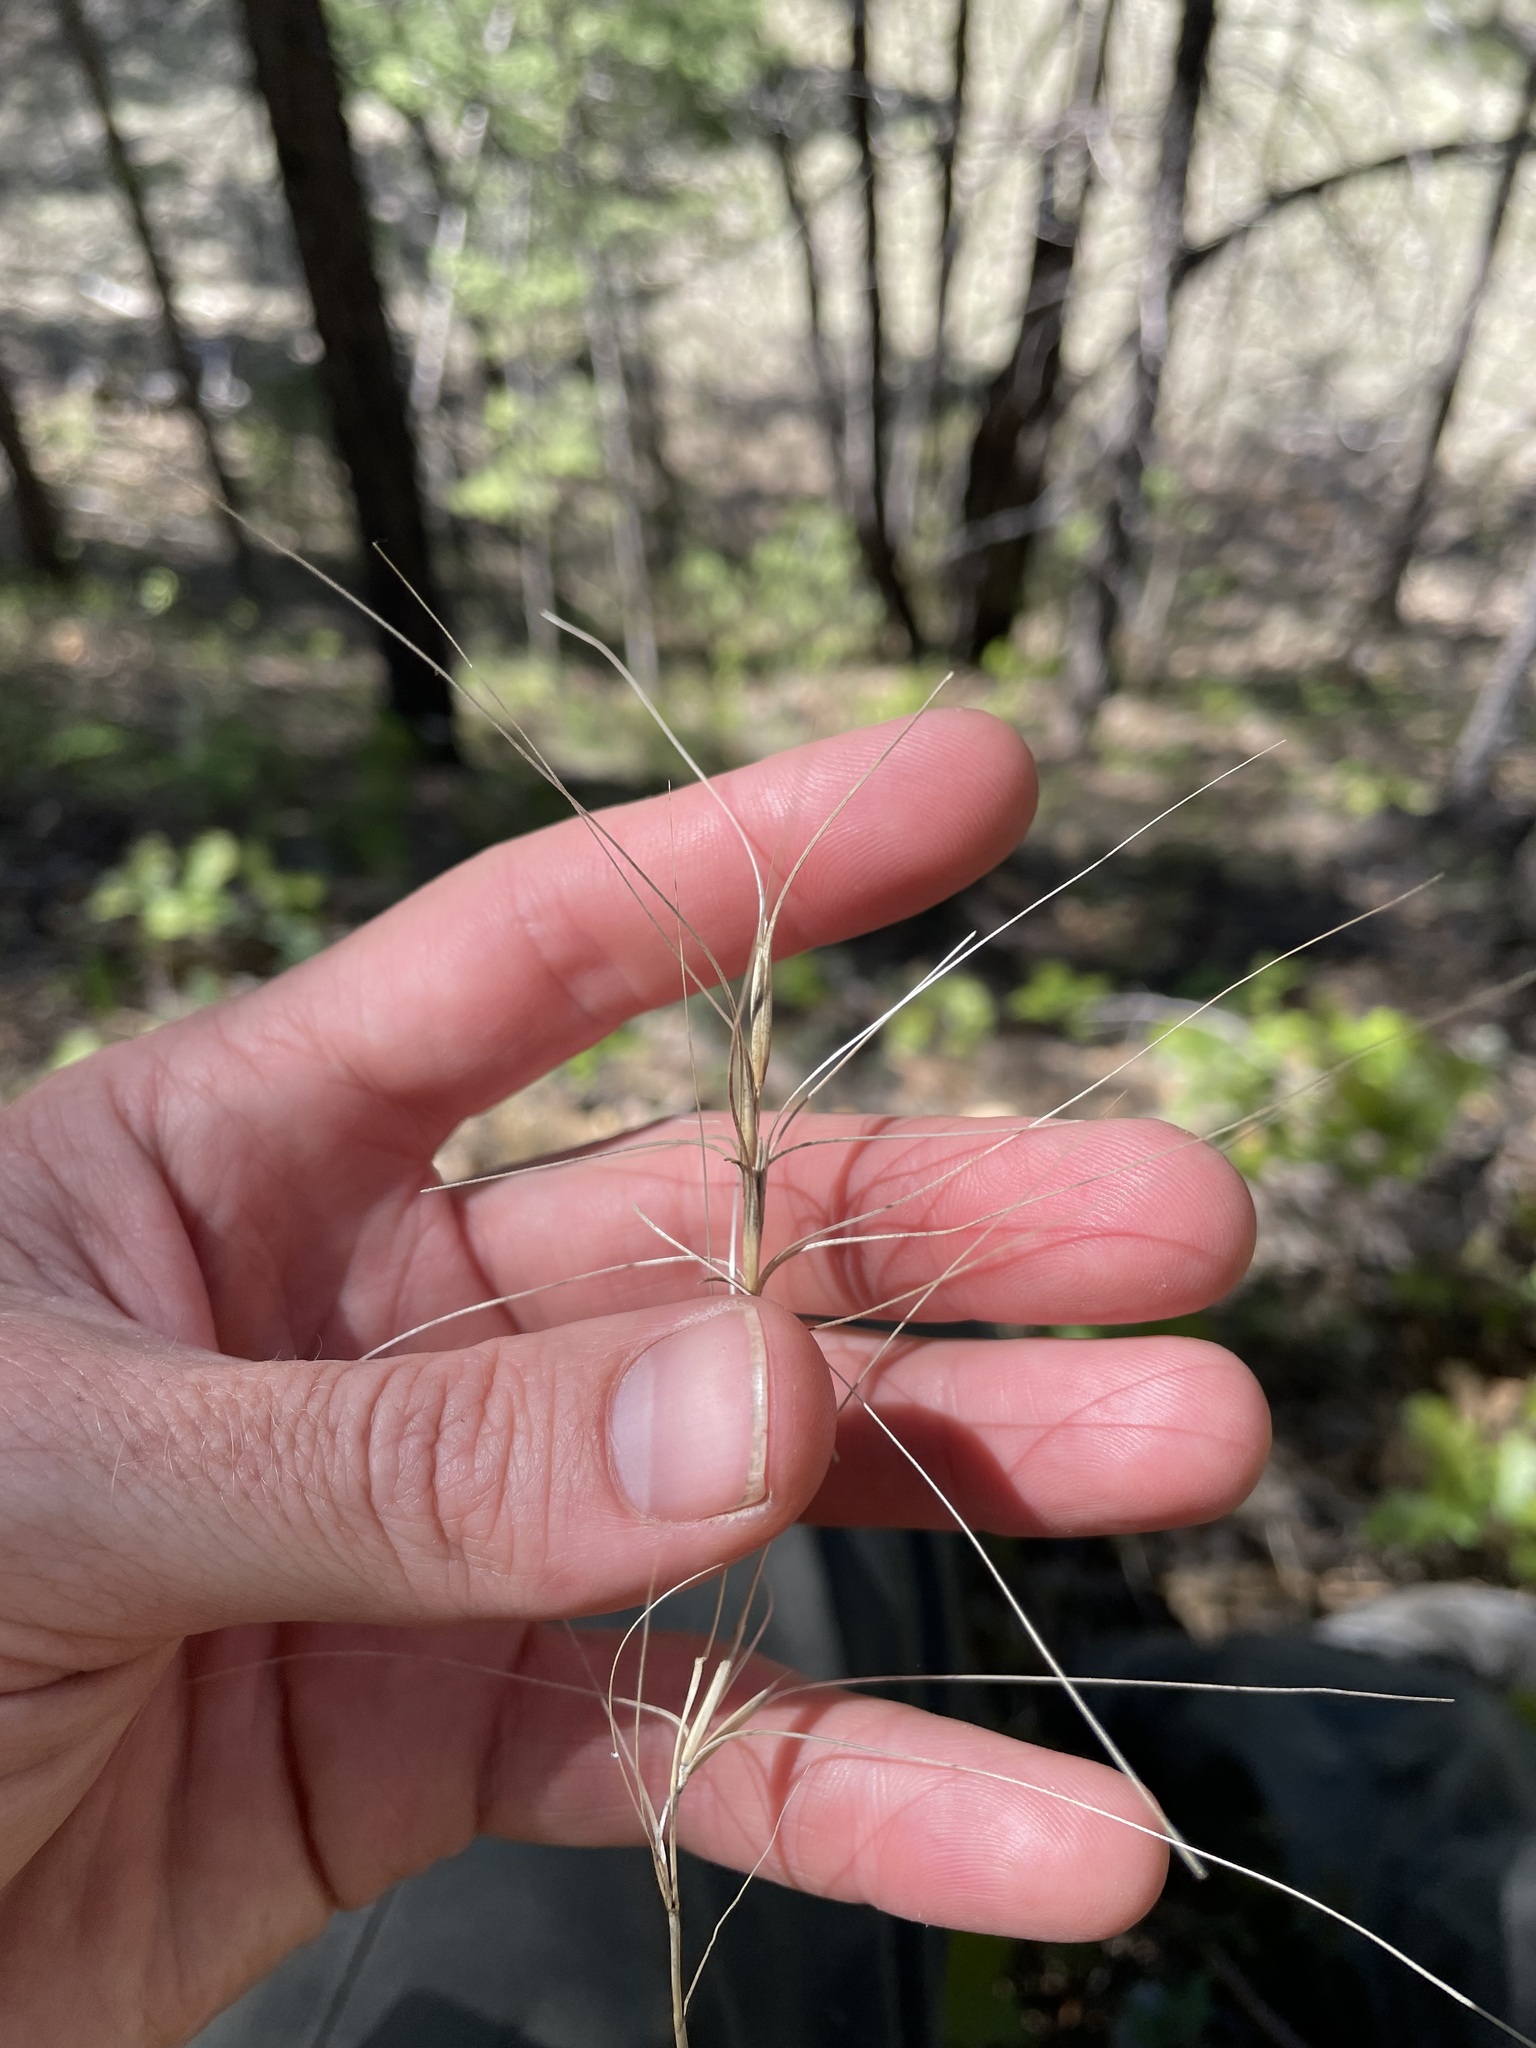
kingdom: Plantae
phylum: Tracheophyta
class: Liliopsida
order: Poales
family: Poaceae
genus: Elymus
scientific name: Elymus longifolius
